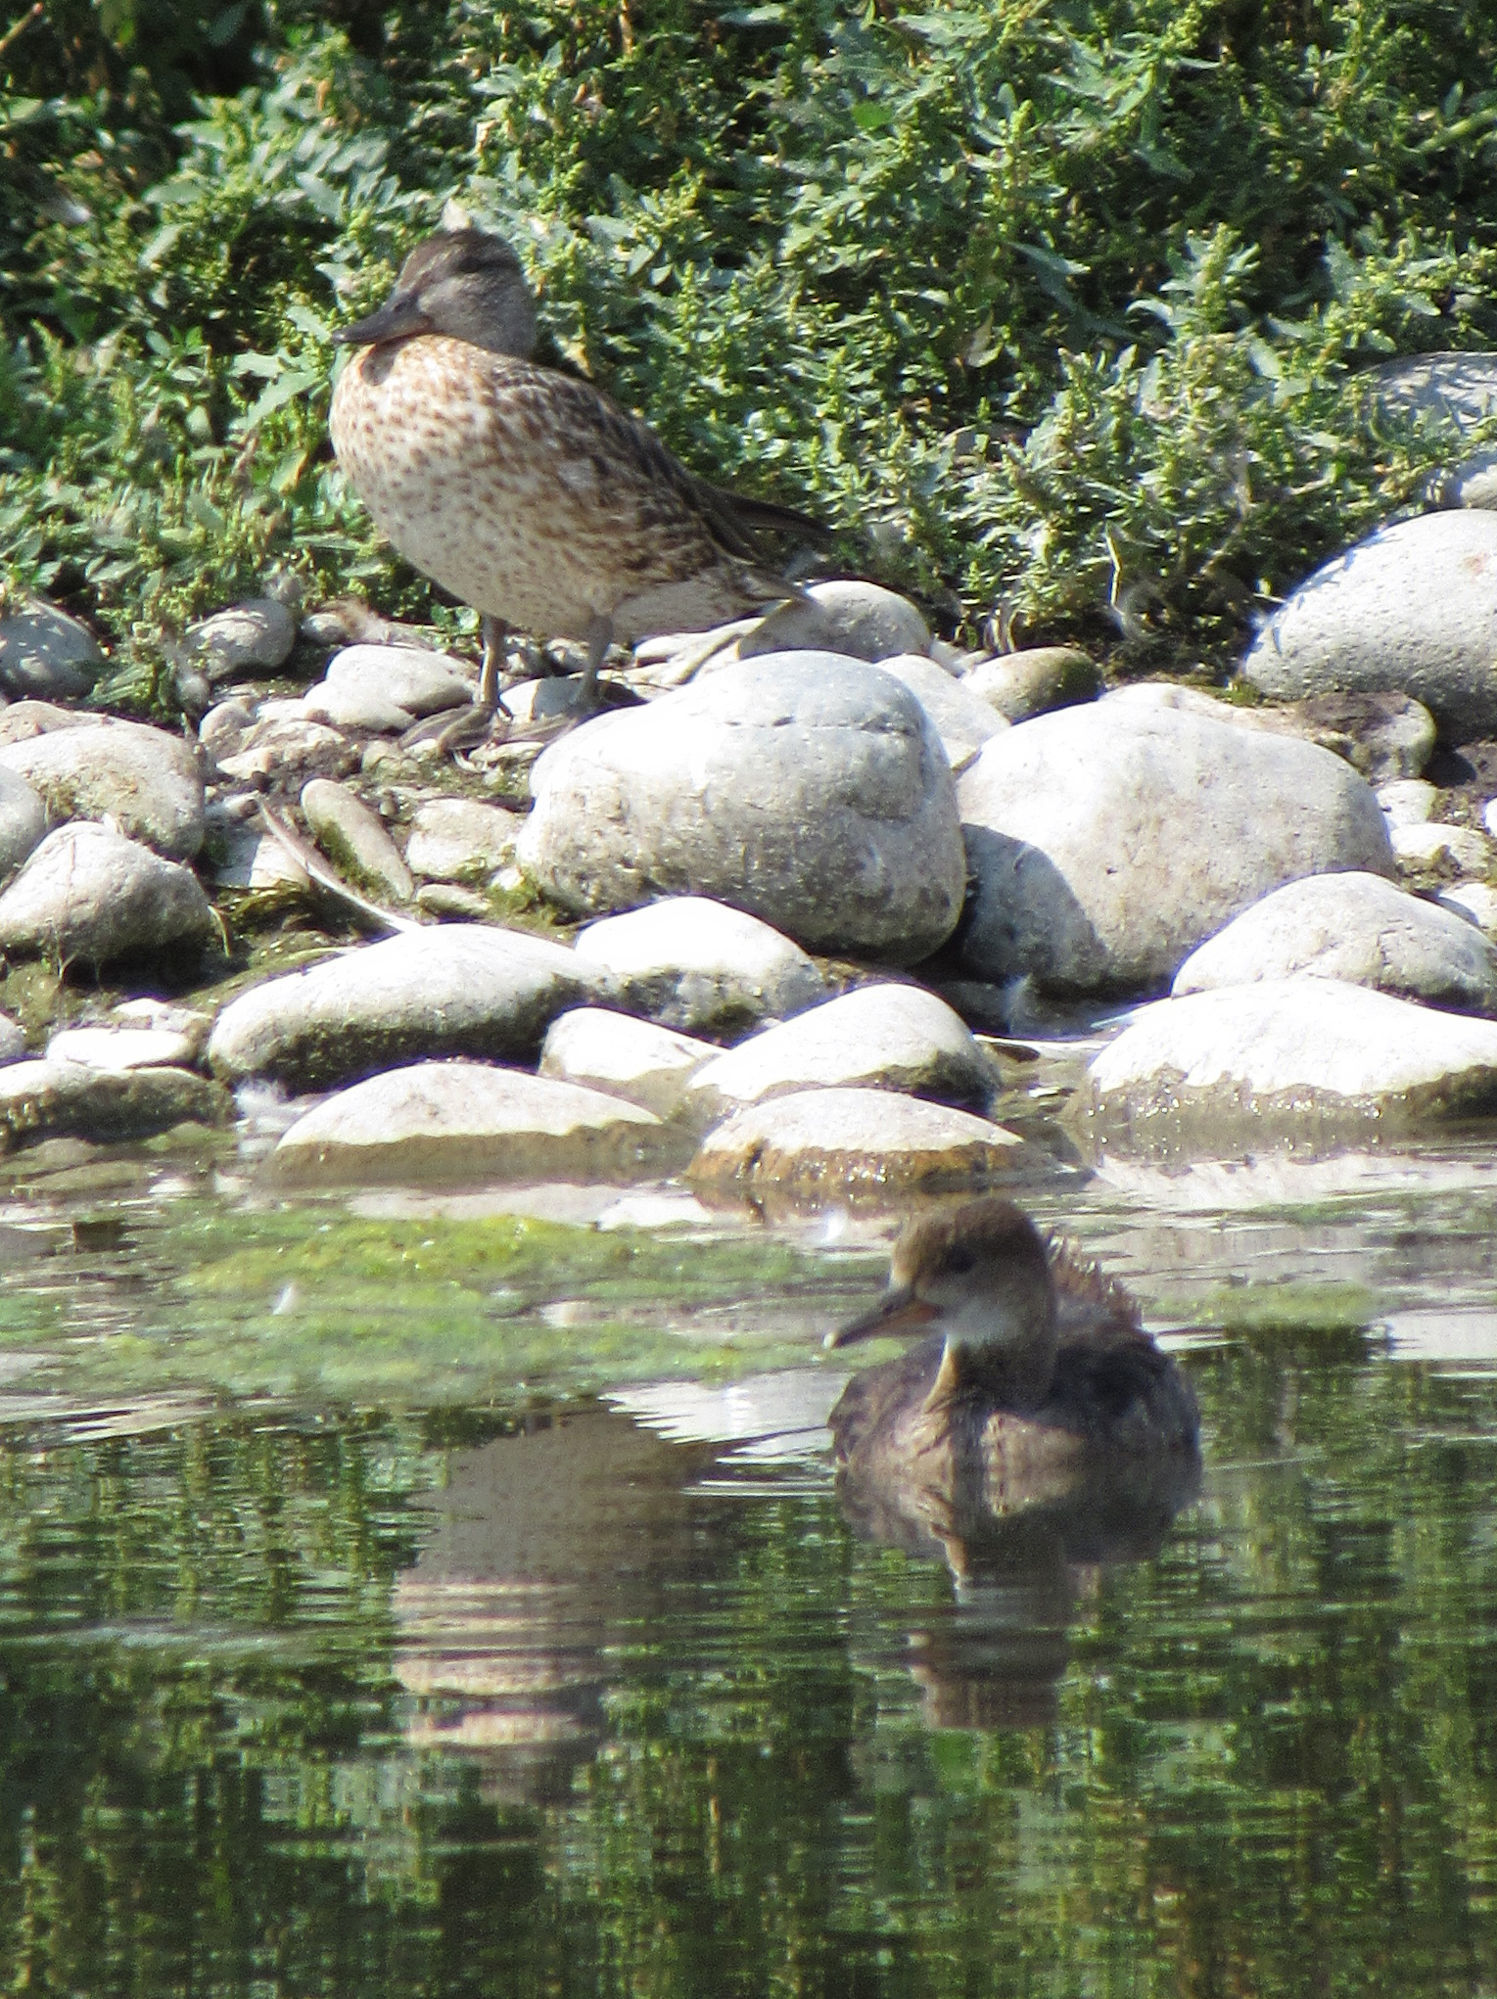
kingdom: Animalia
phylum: Chordata
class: Aves
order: Anseriformes
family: Anatidae
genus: Lophodytes
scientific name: Lophodytes cucullatus
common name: Hooded merganser
